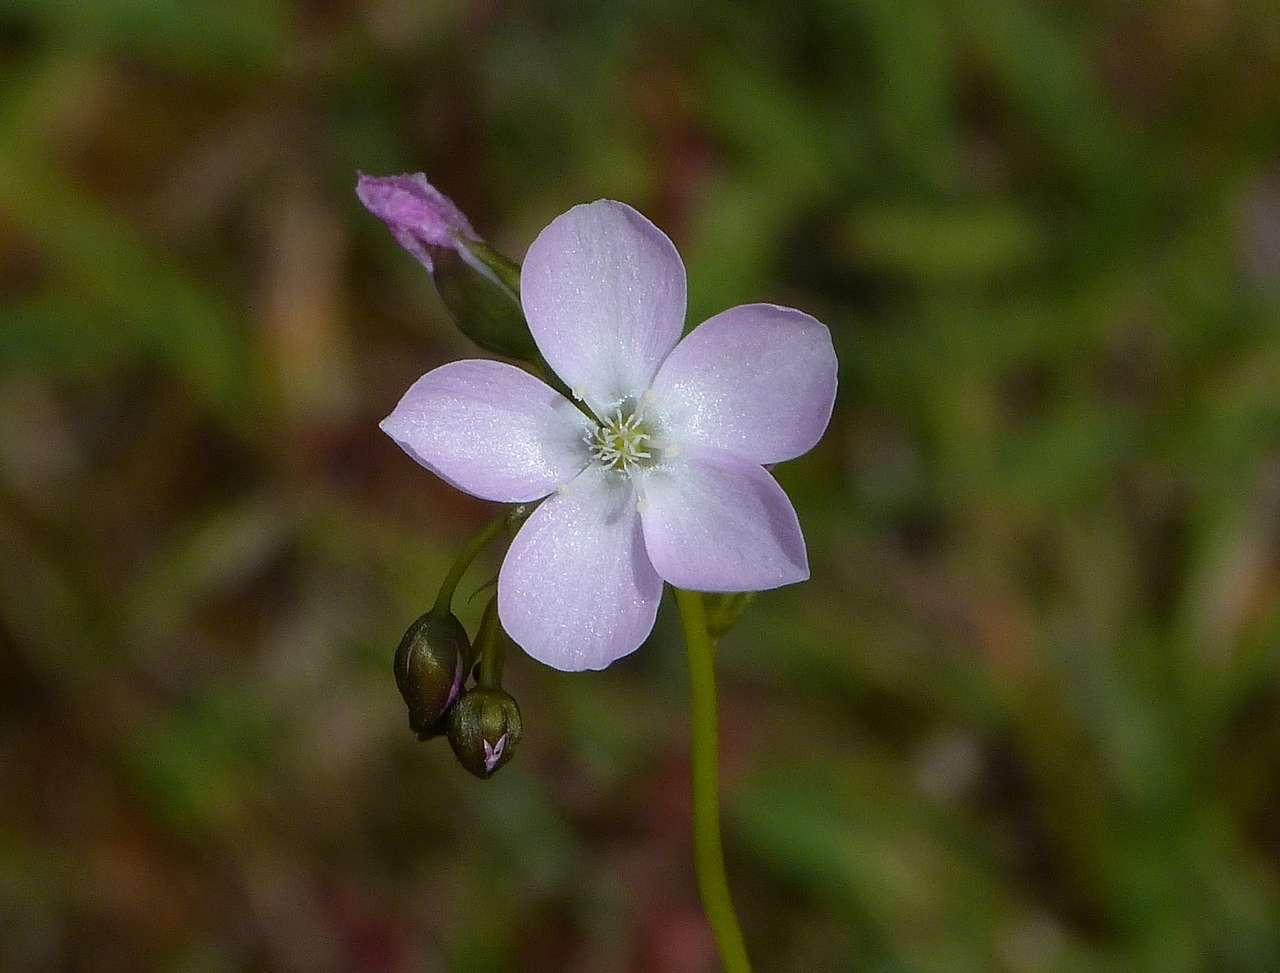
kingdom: Plantae
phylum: Tracheophyta
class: Magnoliopsida
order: Caryophyllales
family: Droseraceae
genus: Drosera
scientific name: Drosera peltata
